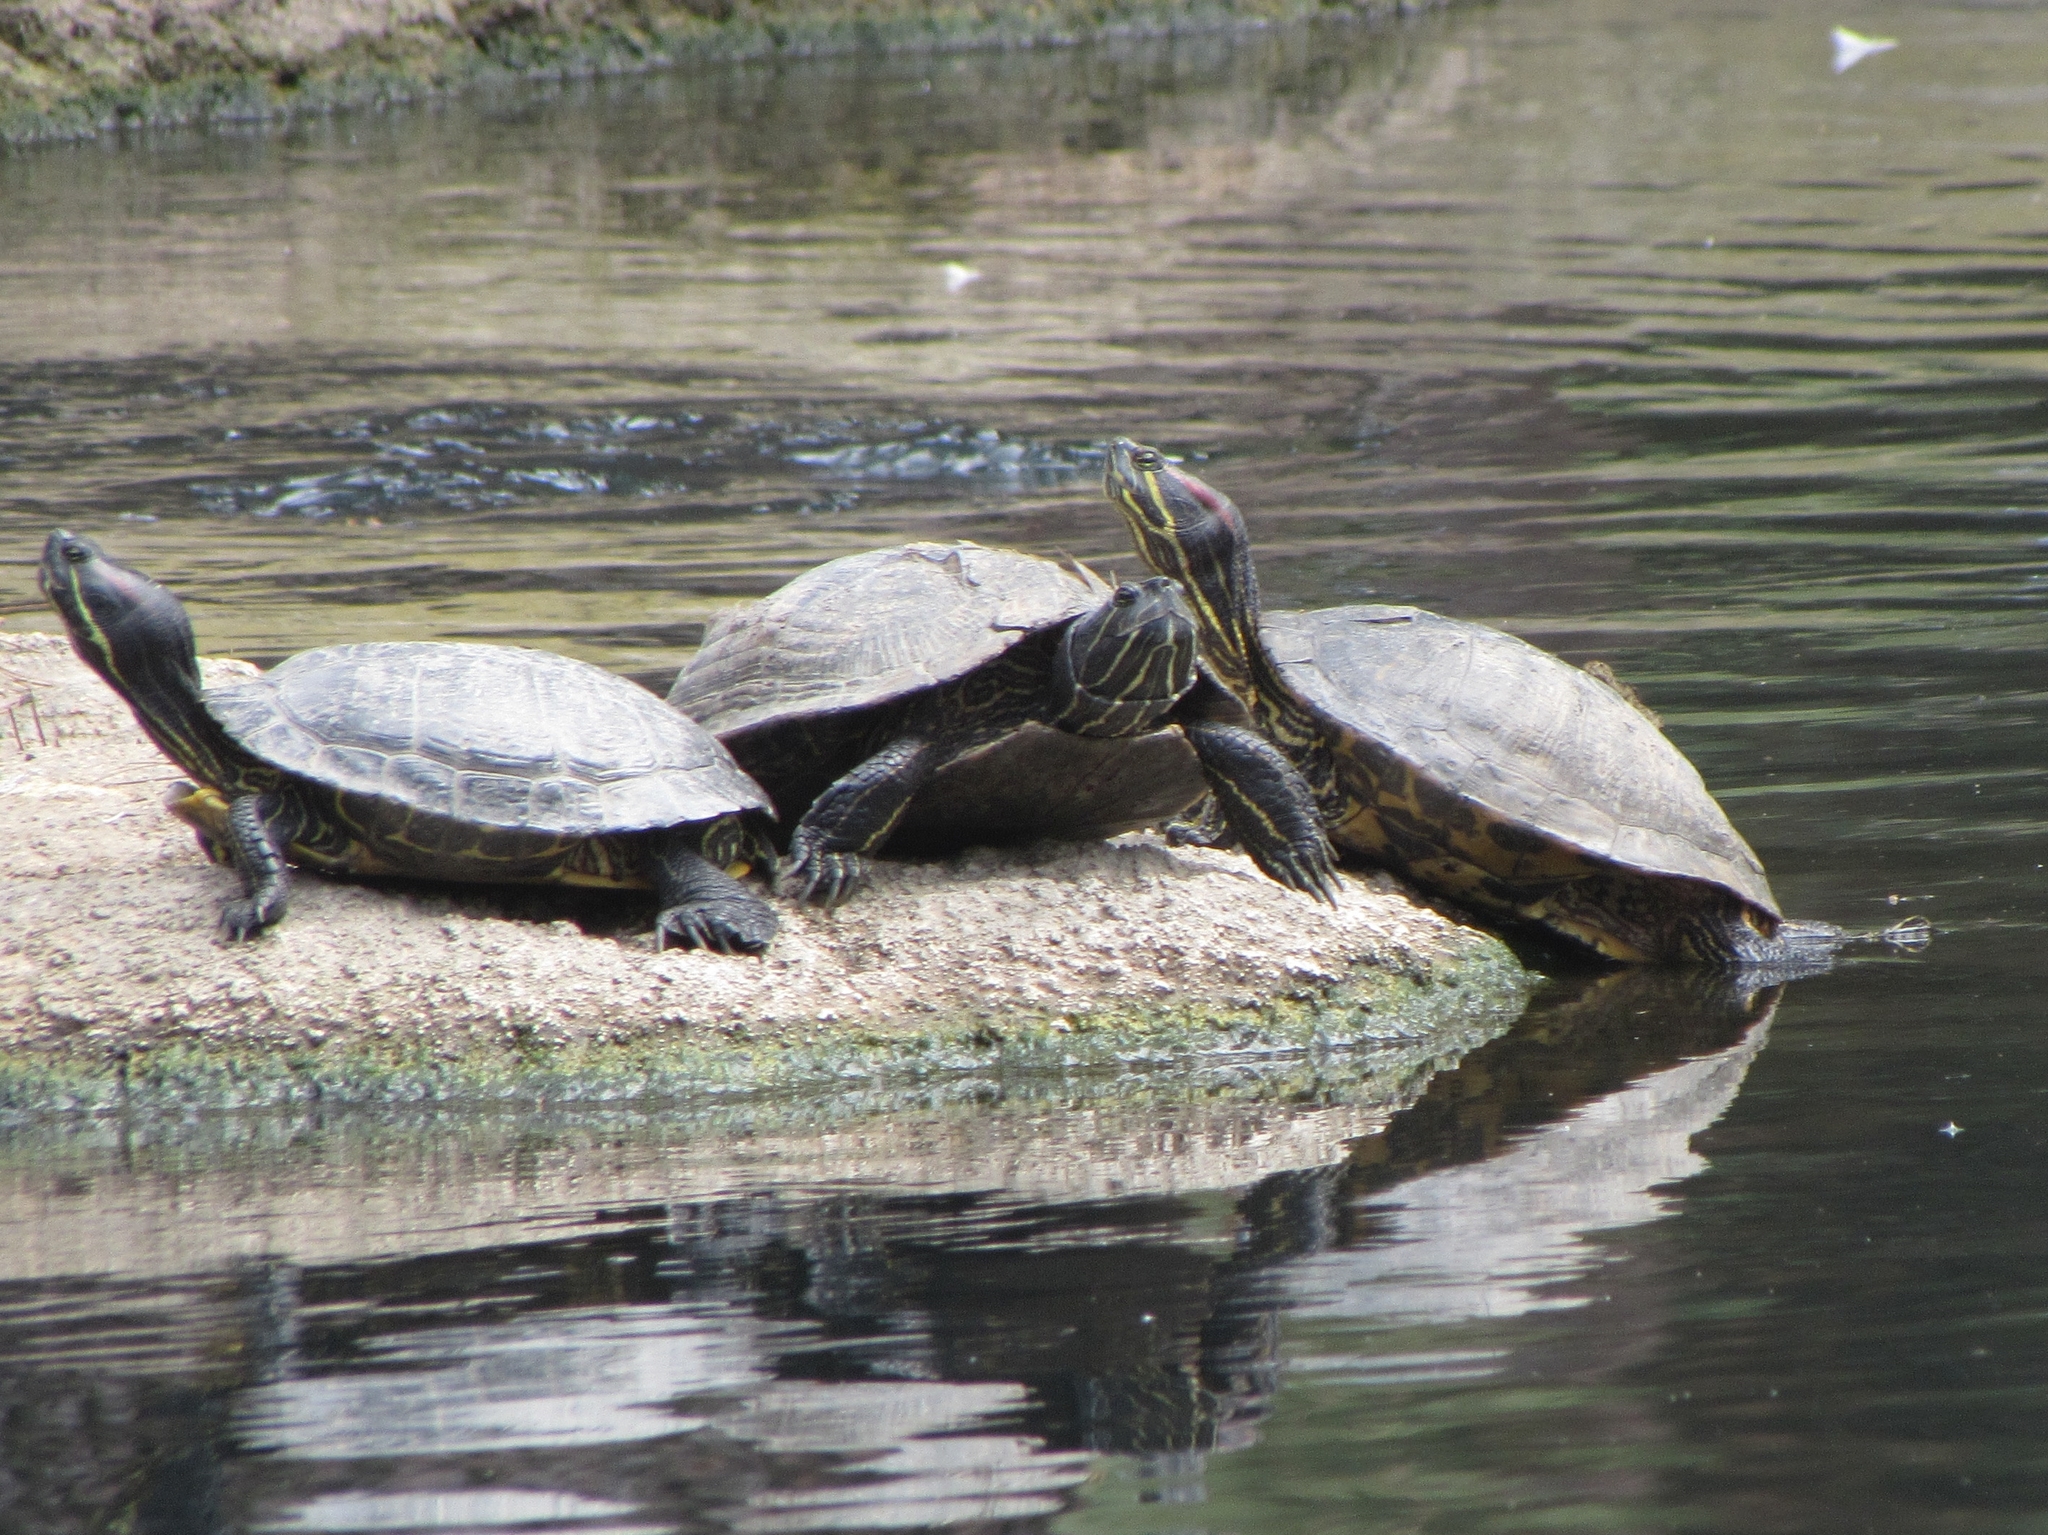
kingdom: Animalia
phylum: Chordata
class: Testudines
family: Emydidae
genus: Trachemys
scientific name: Trachemys scripta
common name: Slider
